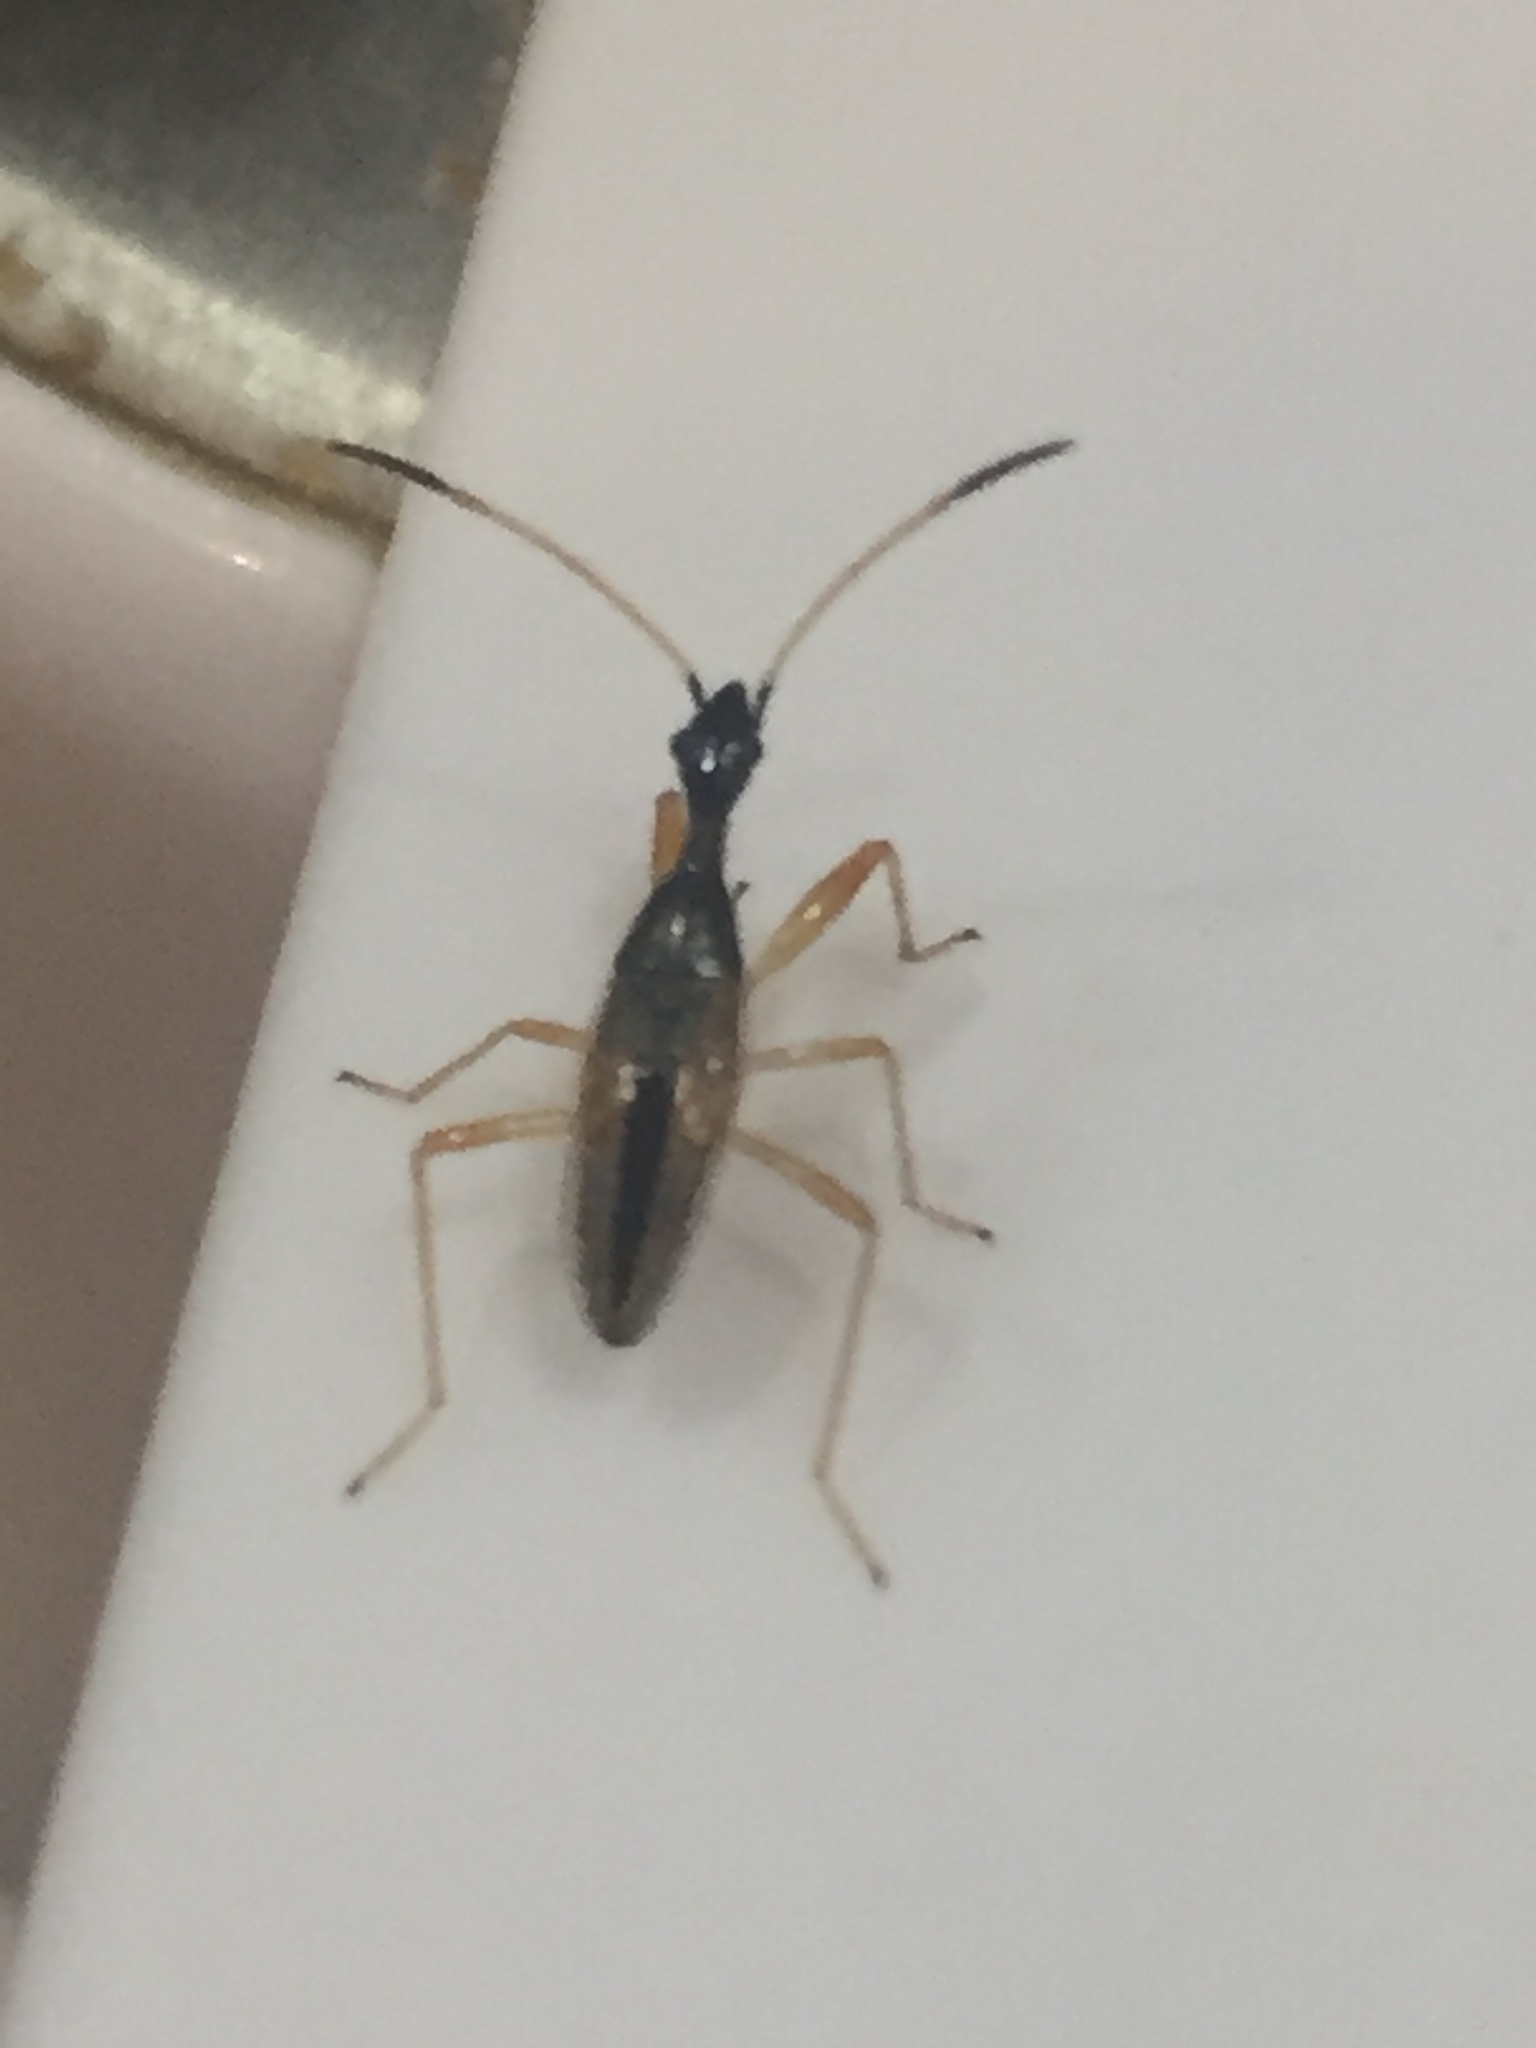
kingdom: Animalia
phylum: Arthropoda
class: Insecta
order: Hemiptera
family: Rhyparochromidae
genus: Myodocha
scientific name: Myodocha serripes
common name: Long-necked seed bug
